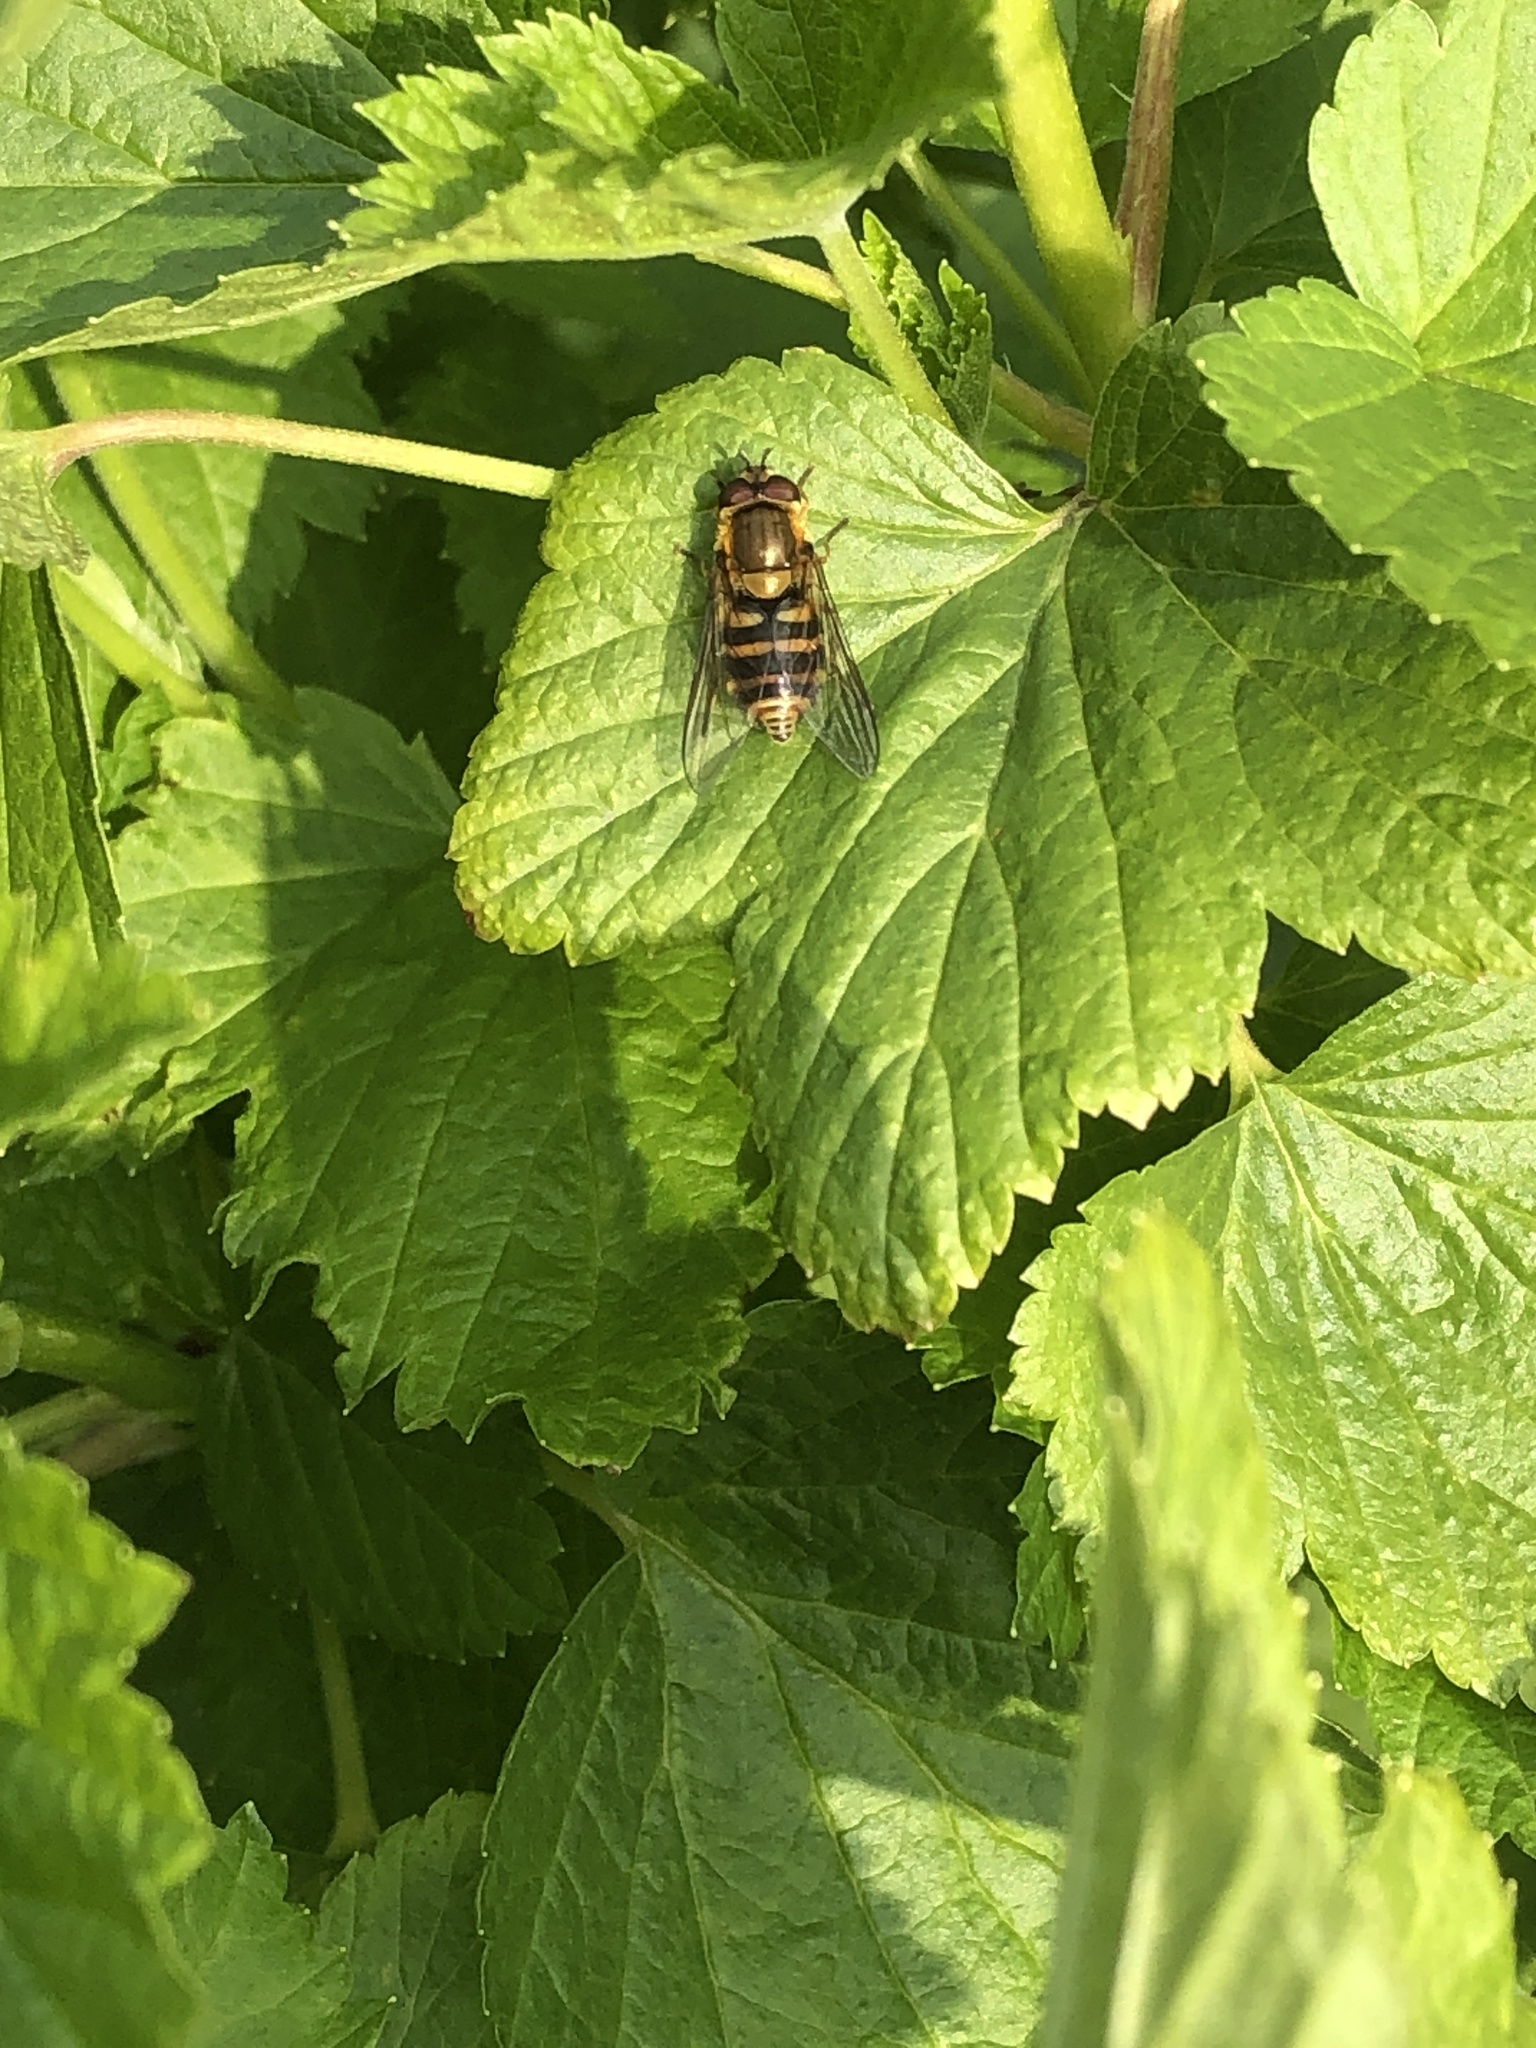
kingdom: Animalia
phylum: Arthropoda
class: Insecta
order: Diptera
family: Syrphidae
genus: Syrphus
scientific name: Syrphus
